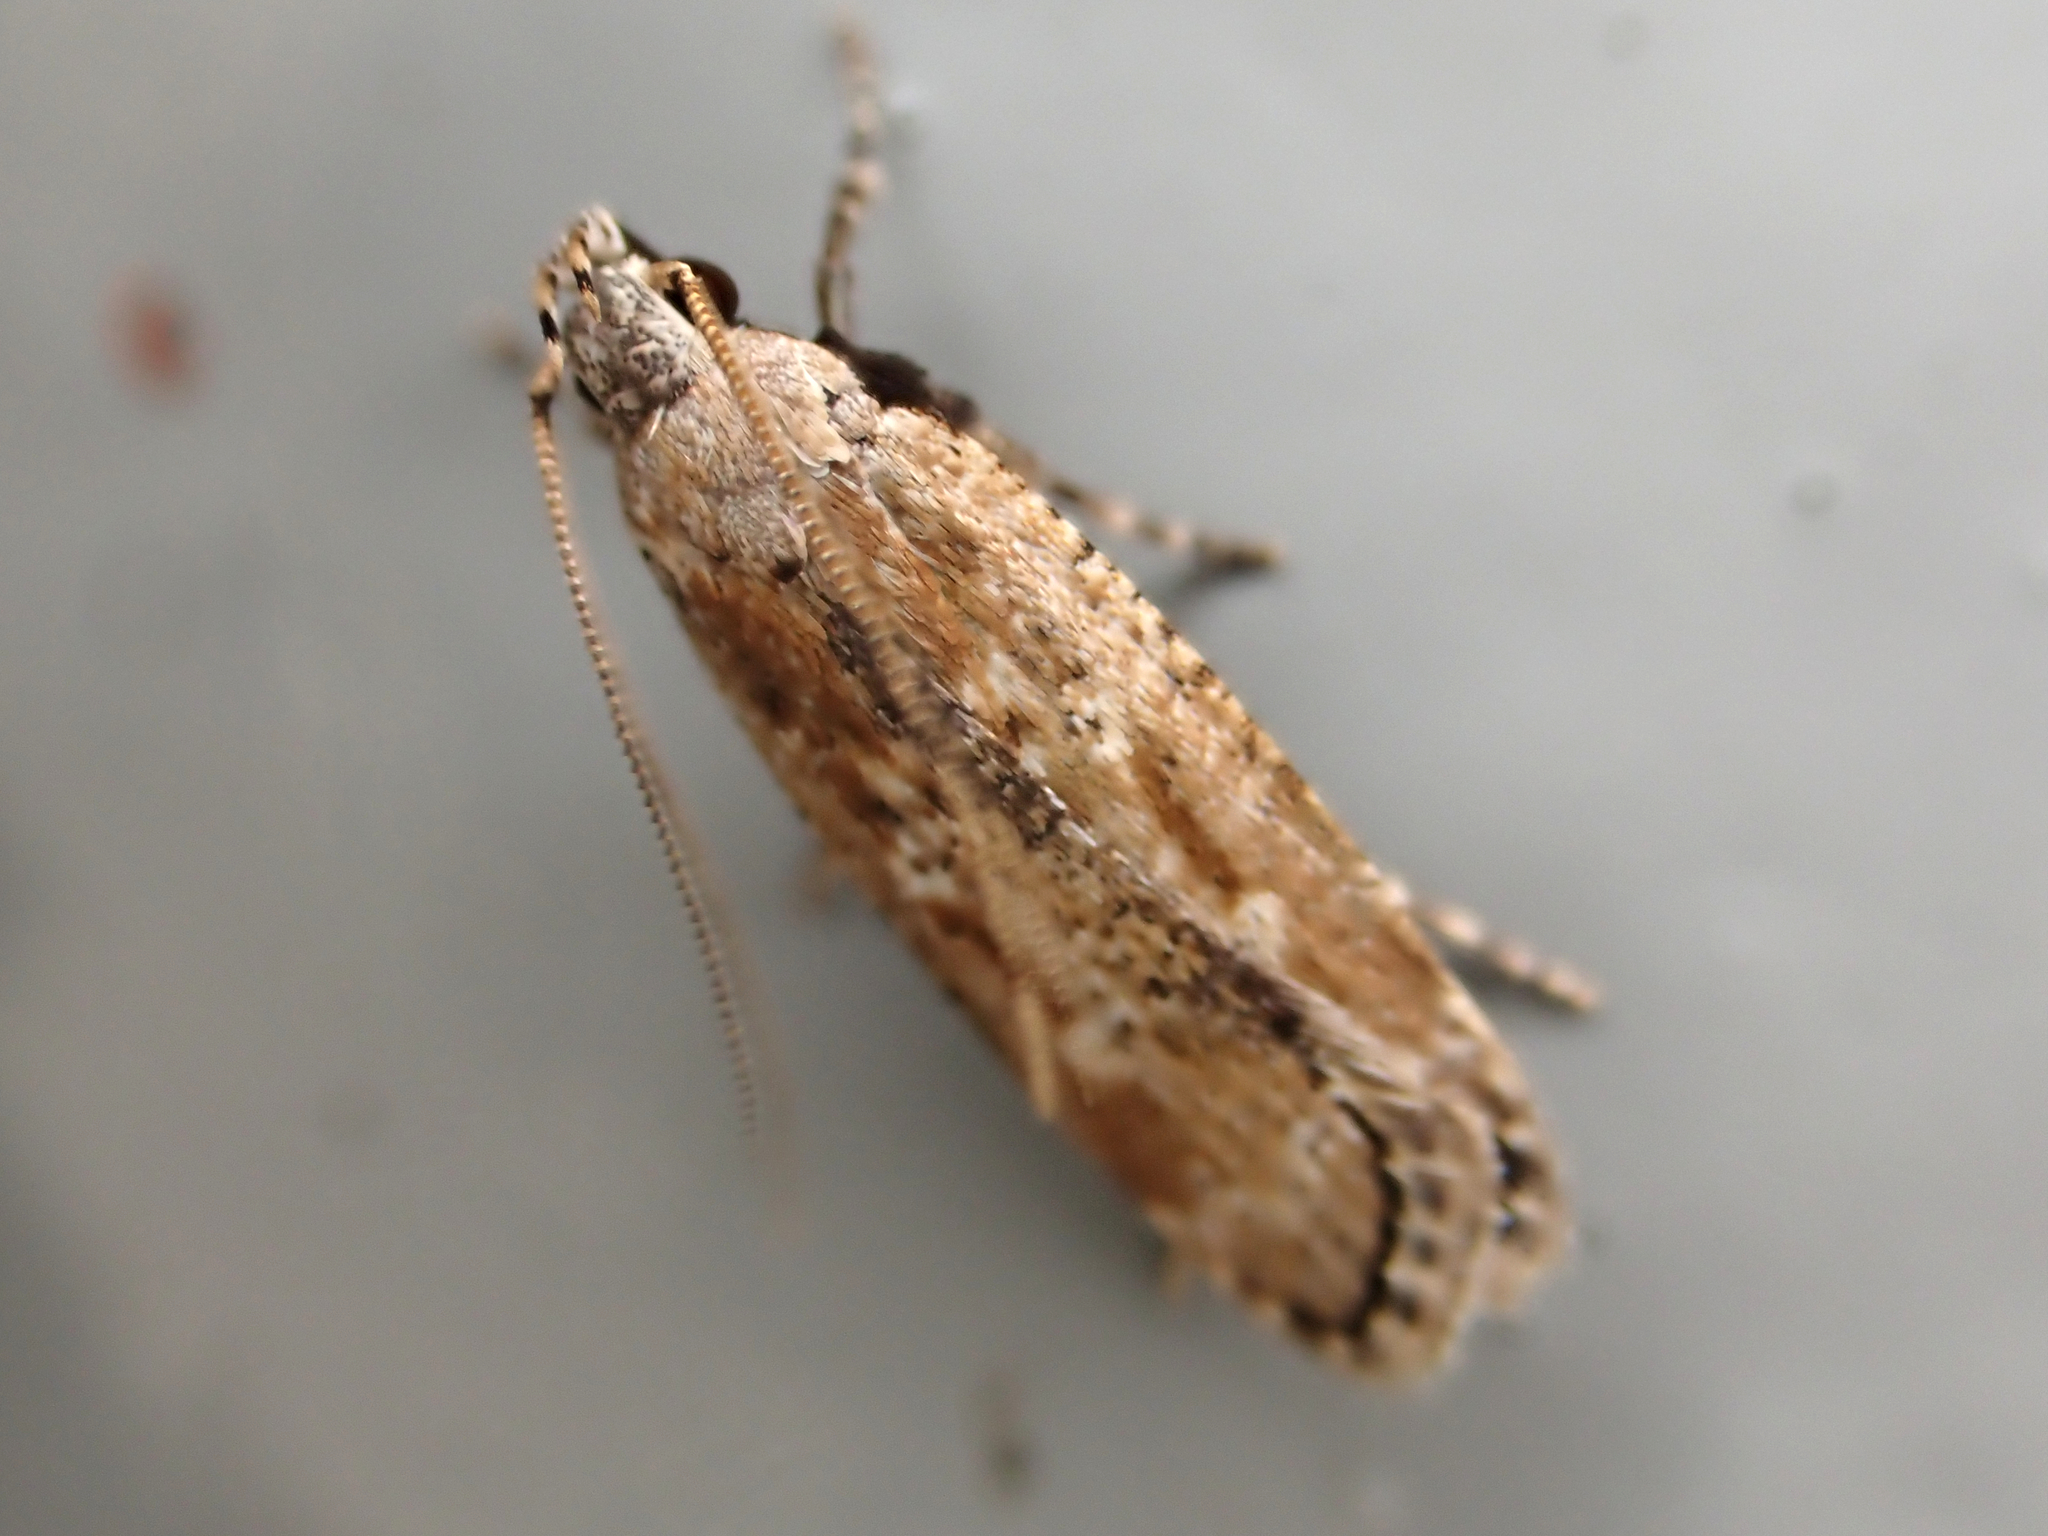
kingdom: Animalia
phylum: Arthropoda
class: Insecta
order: Lepidoptera
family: Gelechiidae
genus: Anisoplaca
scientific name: Anisoplaca achyrota
